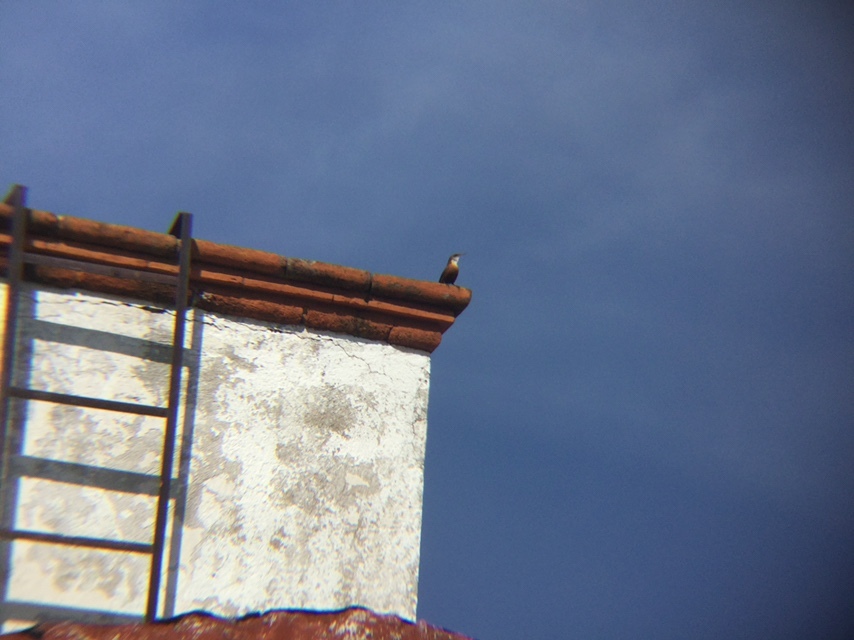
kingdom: Animalia
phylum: Chordata
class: Aves
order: Passeriformes
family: Troglodytidae
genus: Catherpes
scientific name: Catherpes mexicanus
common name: Canyon wren
